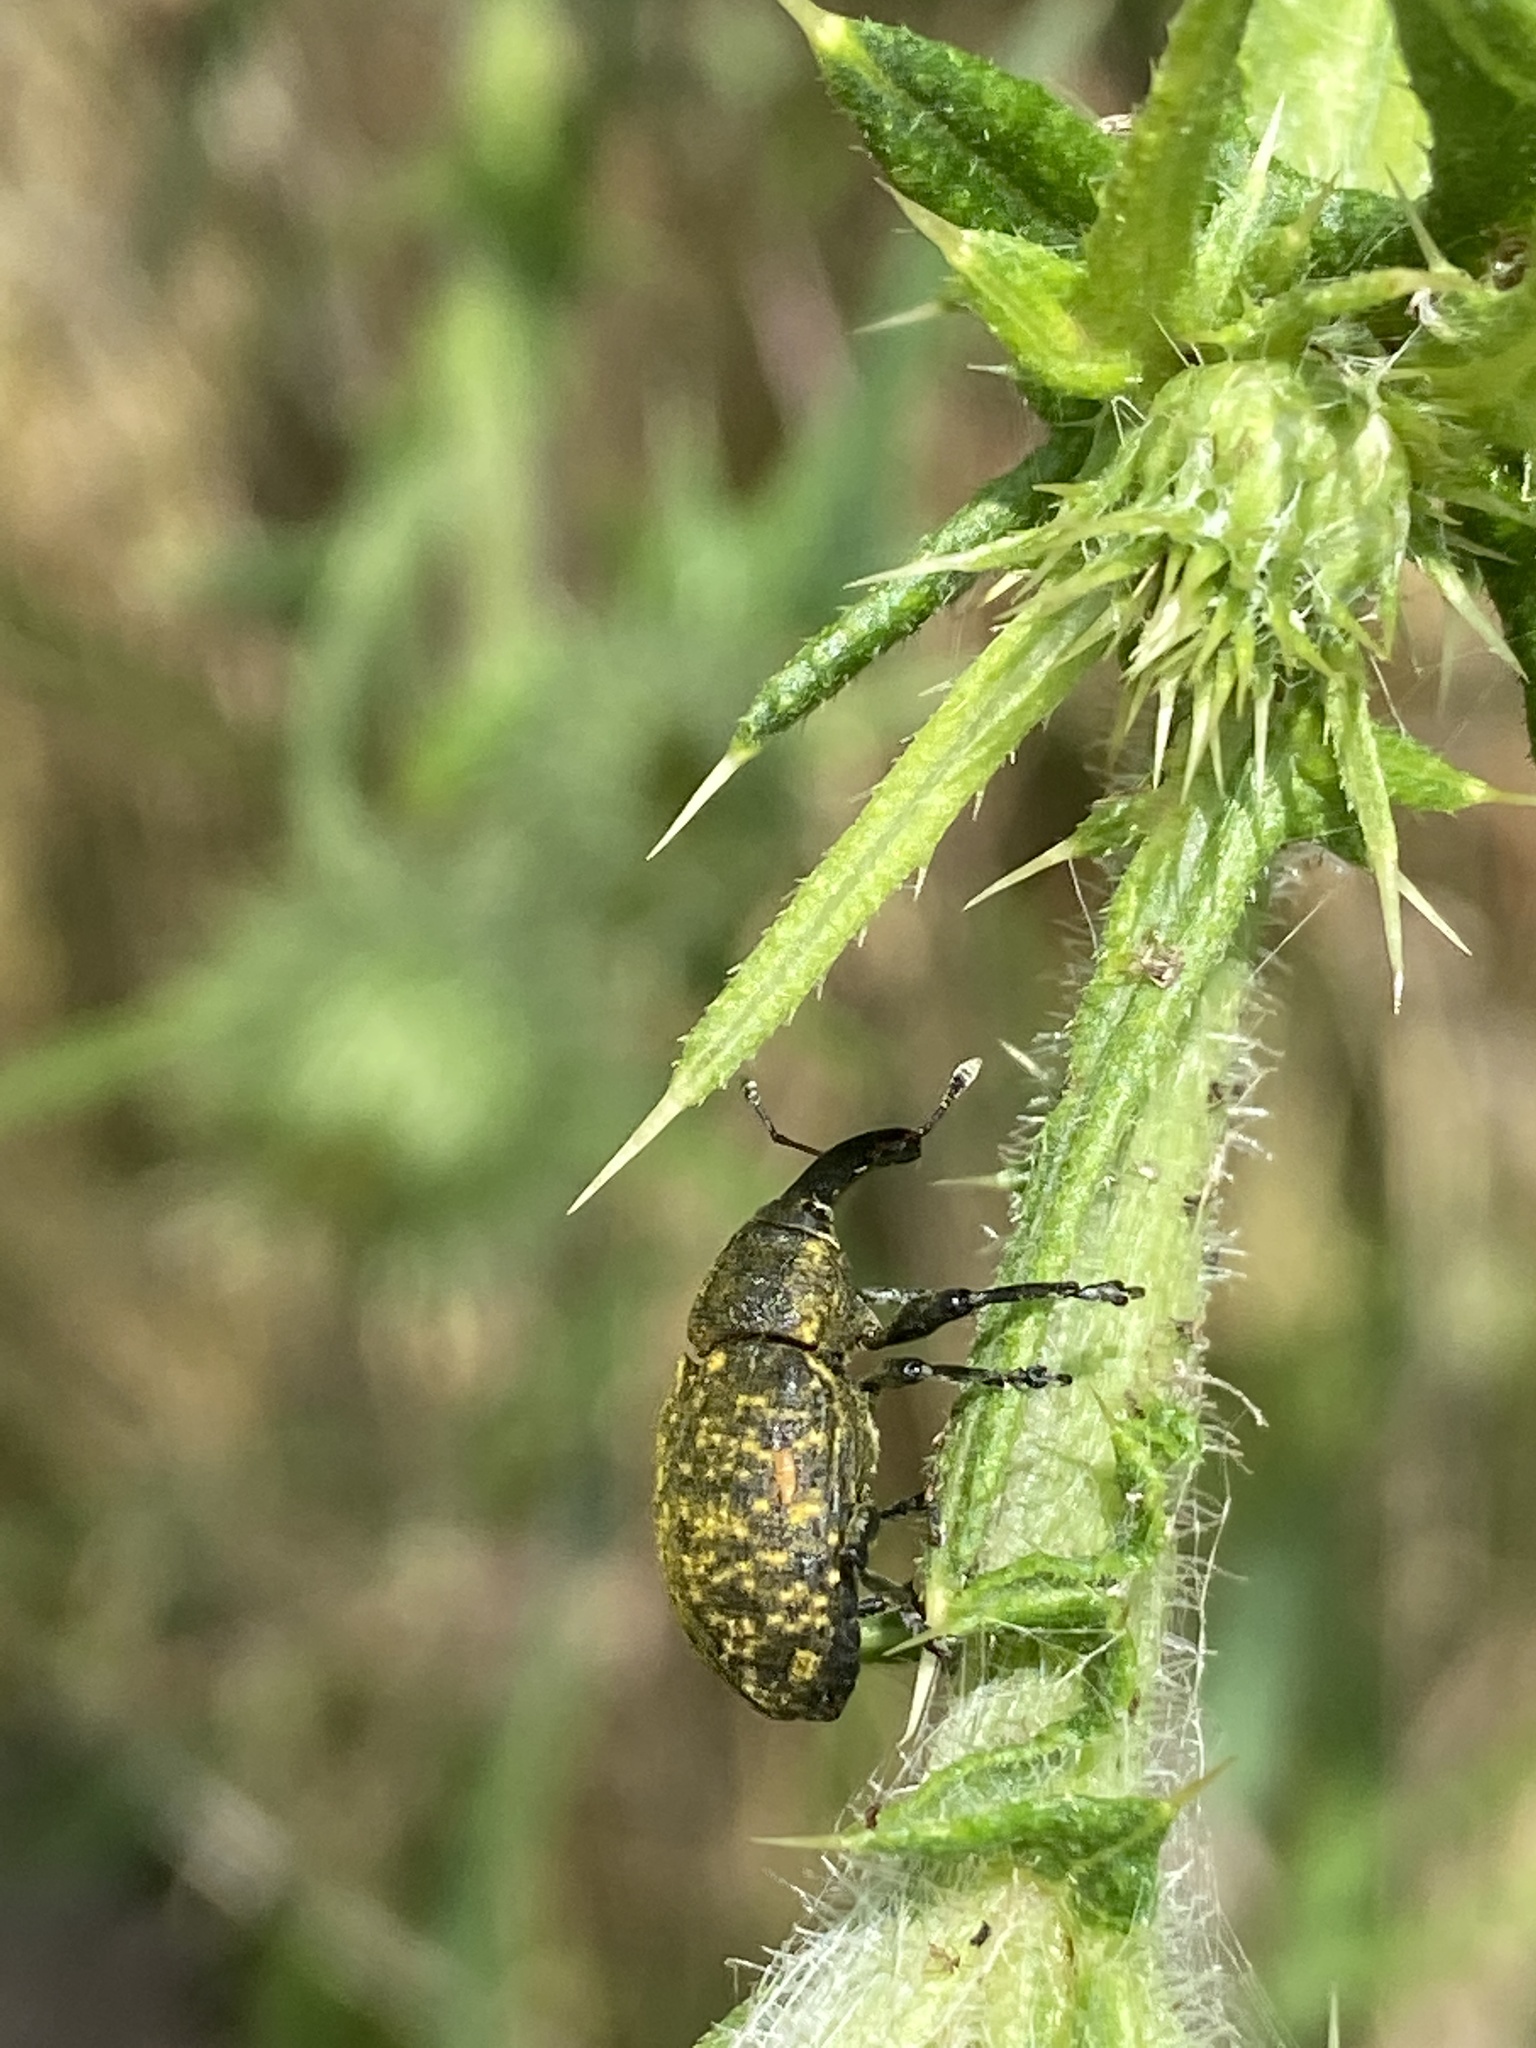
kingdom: Animalia
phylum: Arthropoda
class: Insecta
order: Coleoptera
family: Curculionidae
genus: Larinus
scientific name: Larinus sturnus
